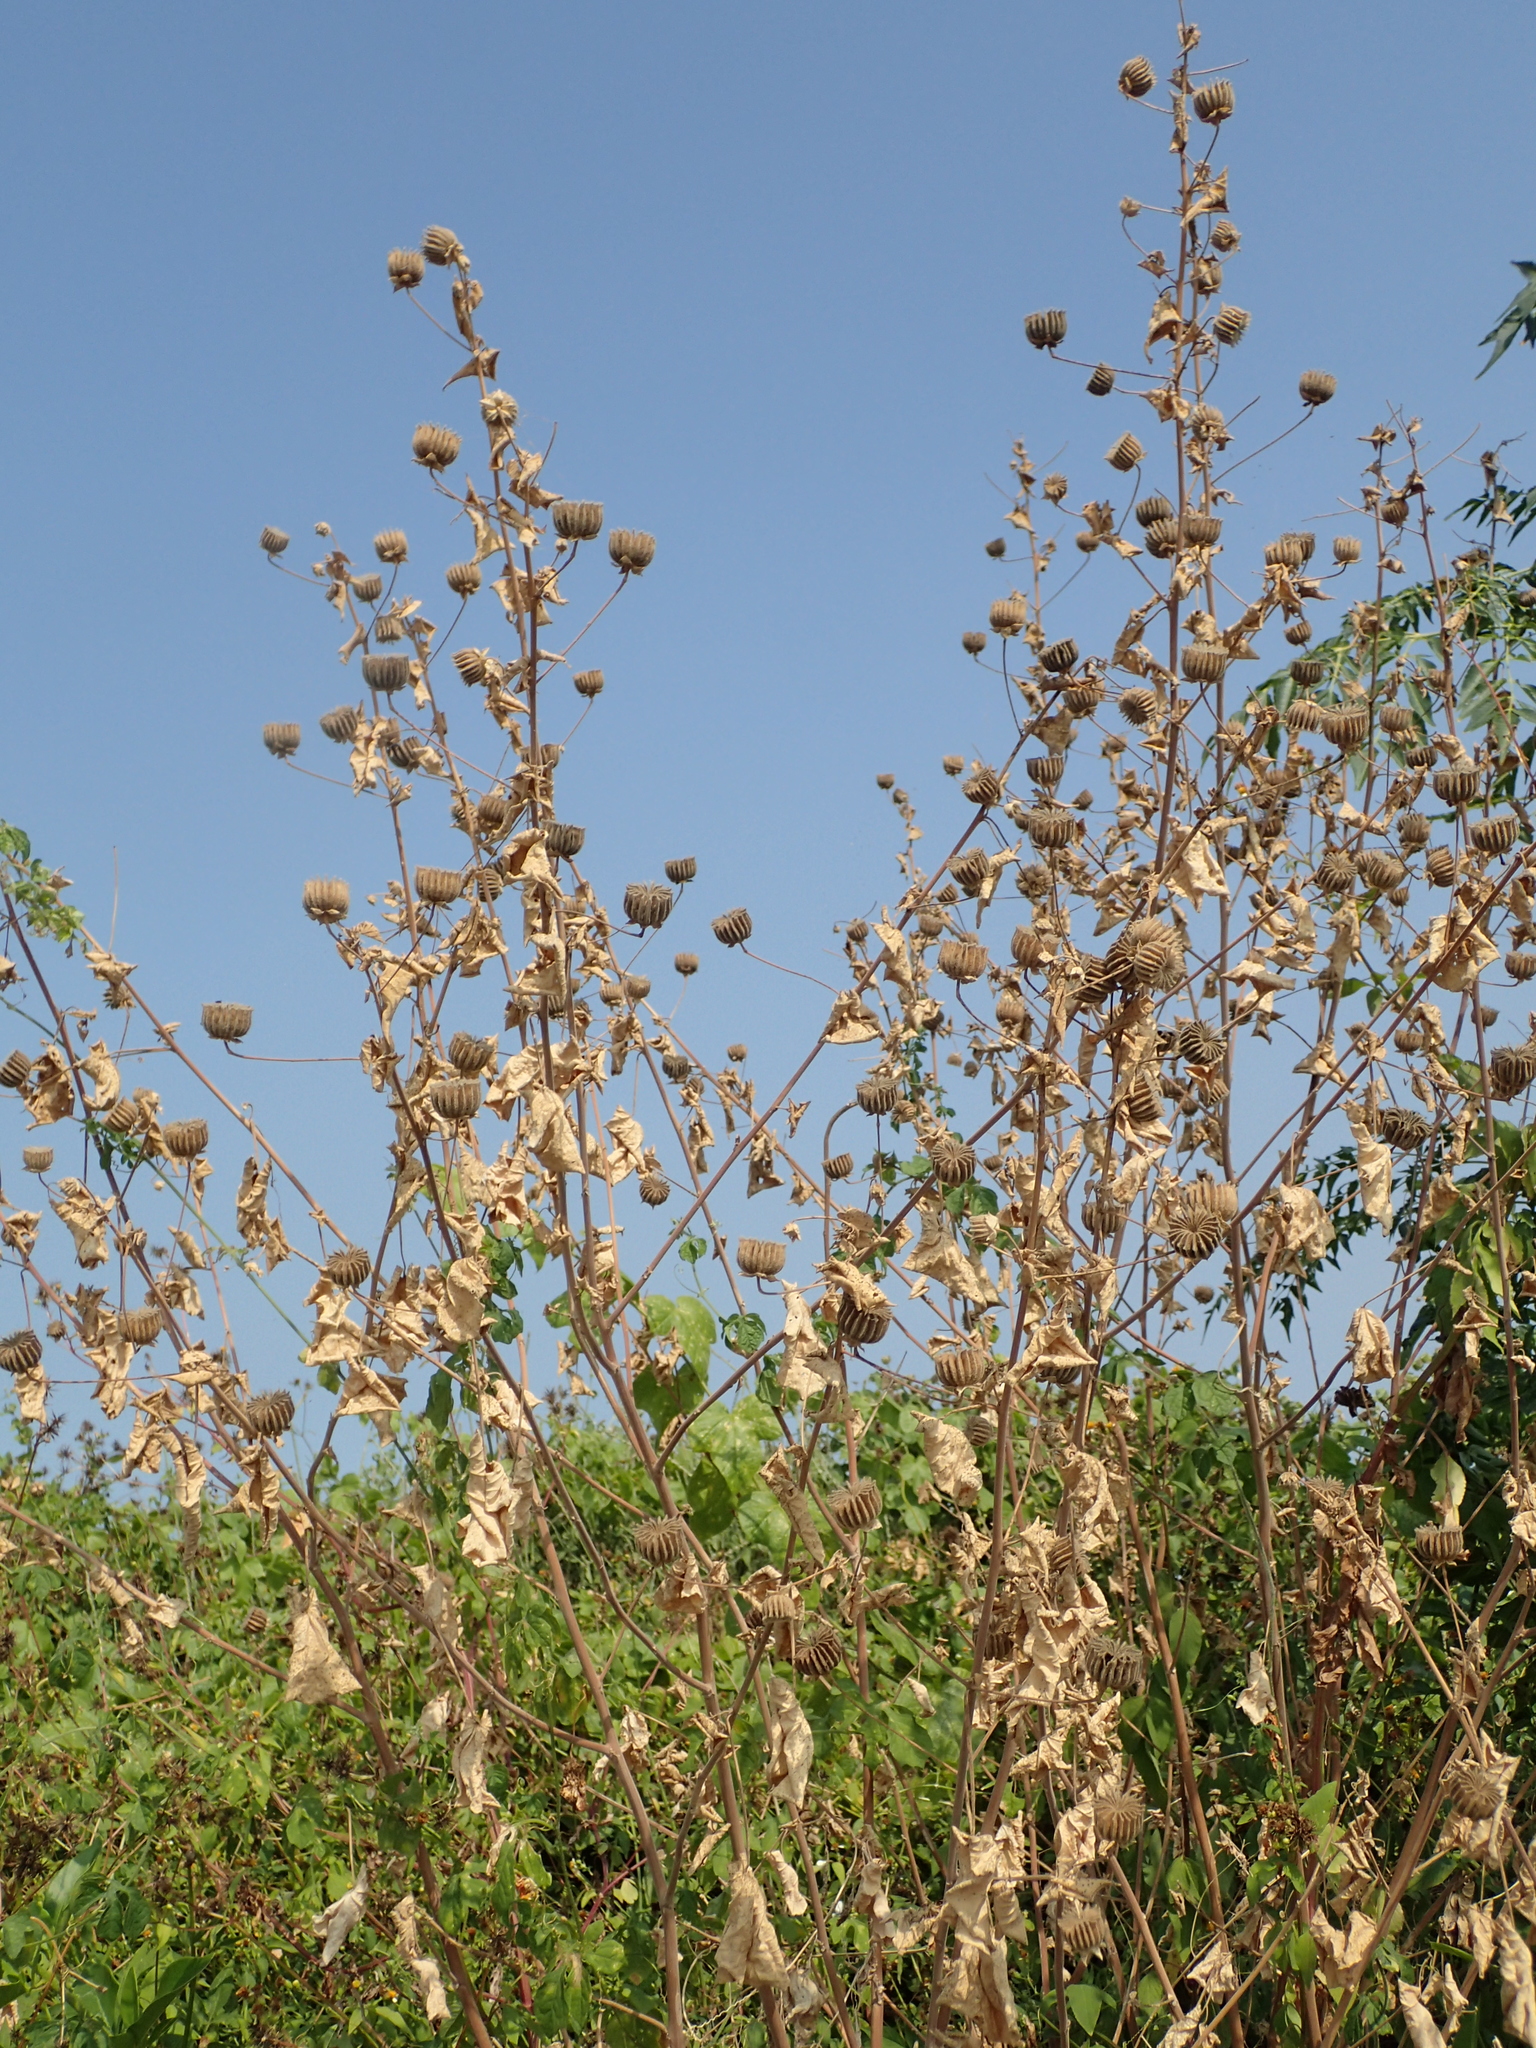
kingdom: Plantae
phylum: Tracheophyta
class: Magnoliopsida
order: Malvales
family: Malvaceae
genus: Abutilon
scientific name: Abutilon indicum
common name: Indian abutilon
